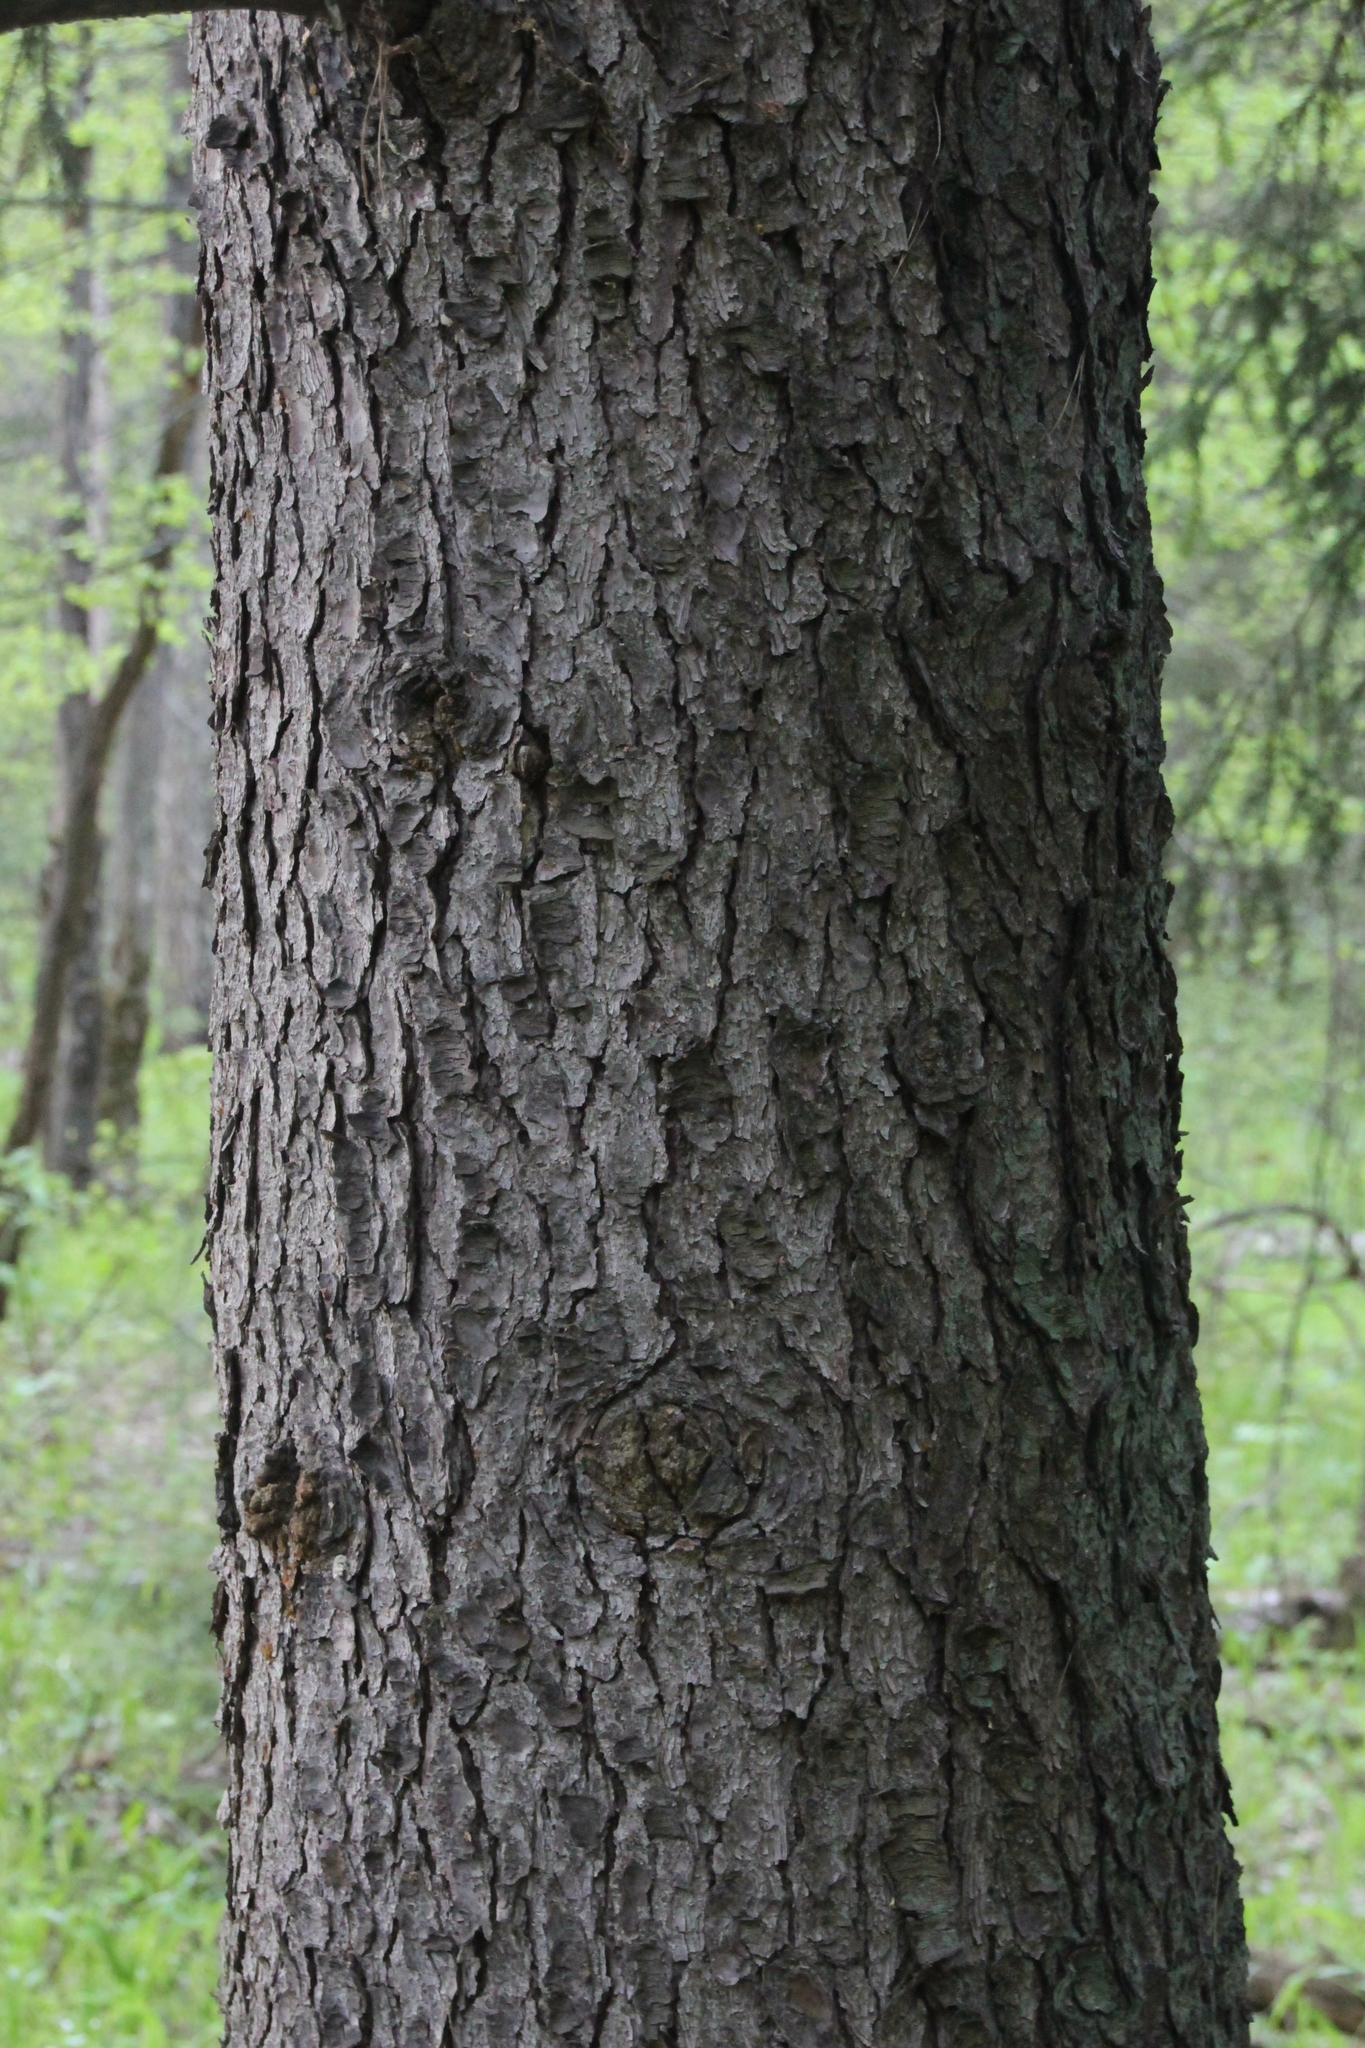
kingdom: Plantae
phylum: Tracheophyta
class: Pinopsida
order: Pinales
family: Pinaceae
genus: Picea
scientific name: Picea abies
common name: Norway spruce
